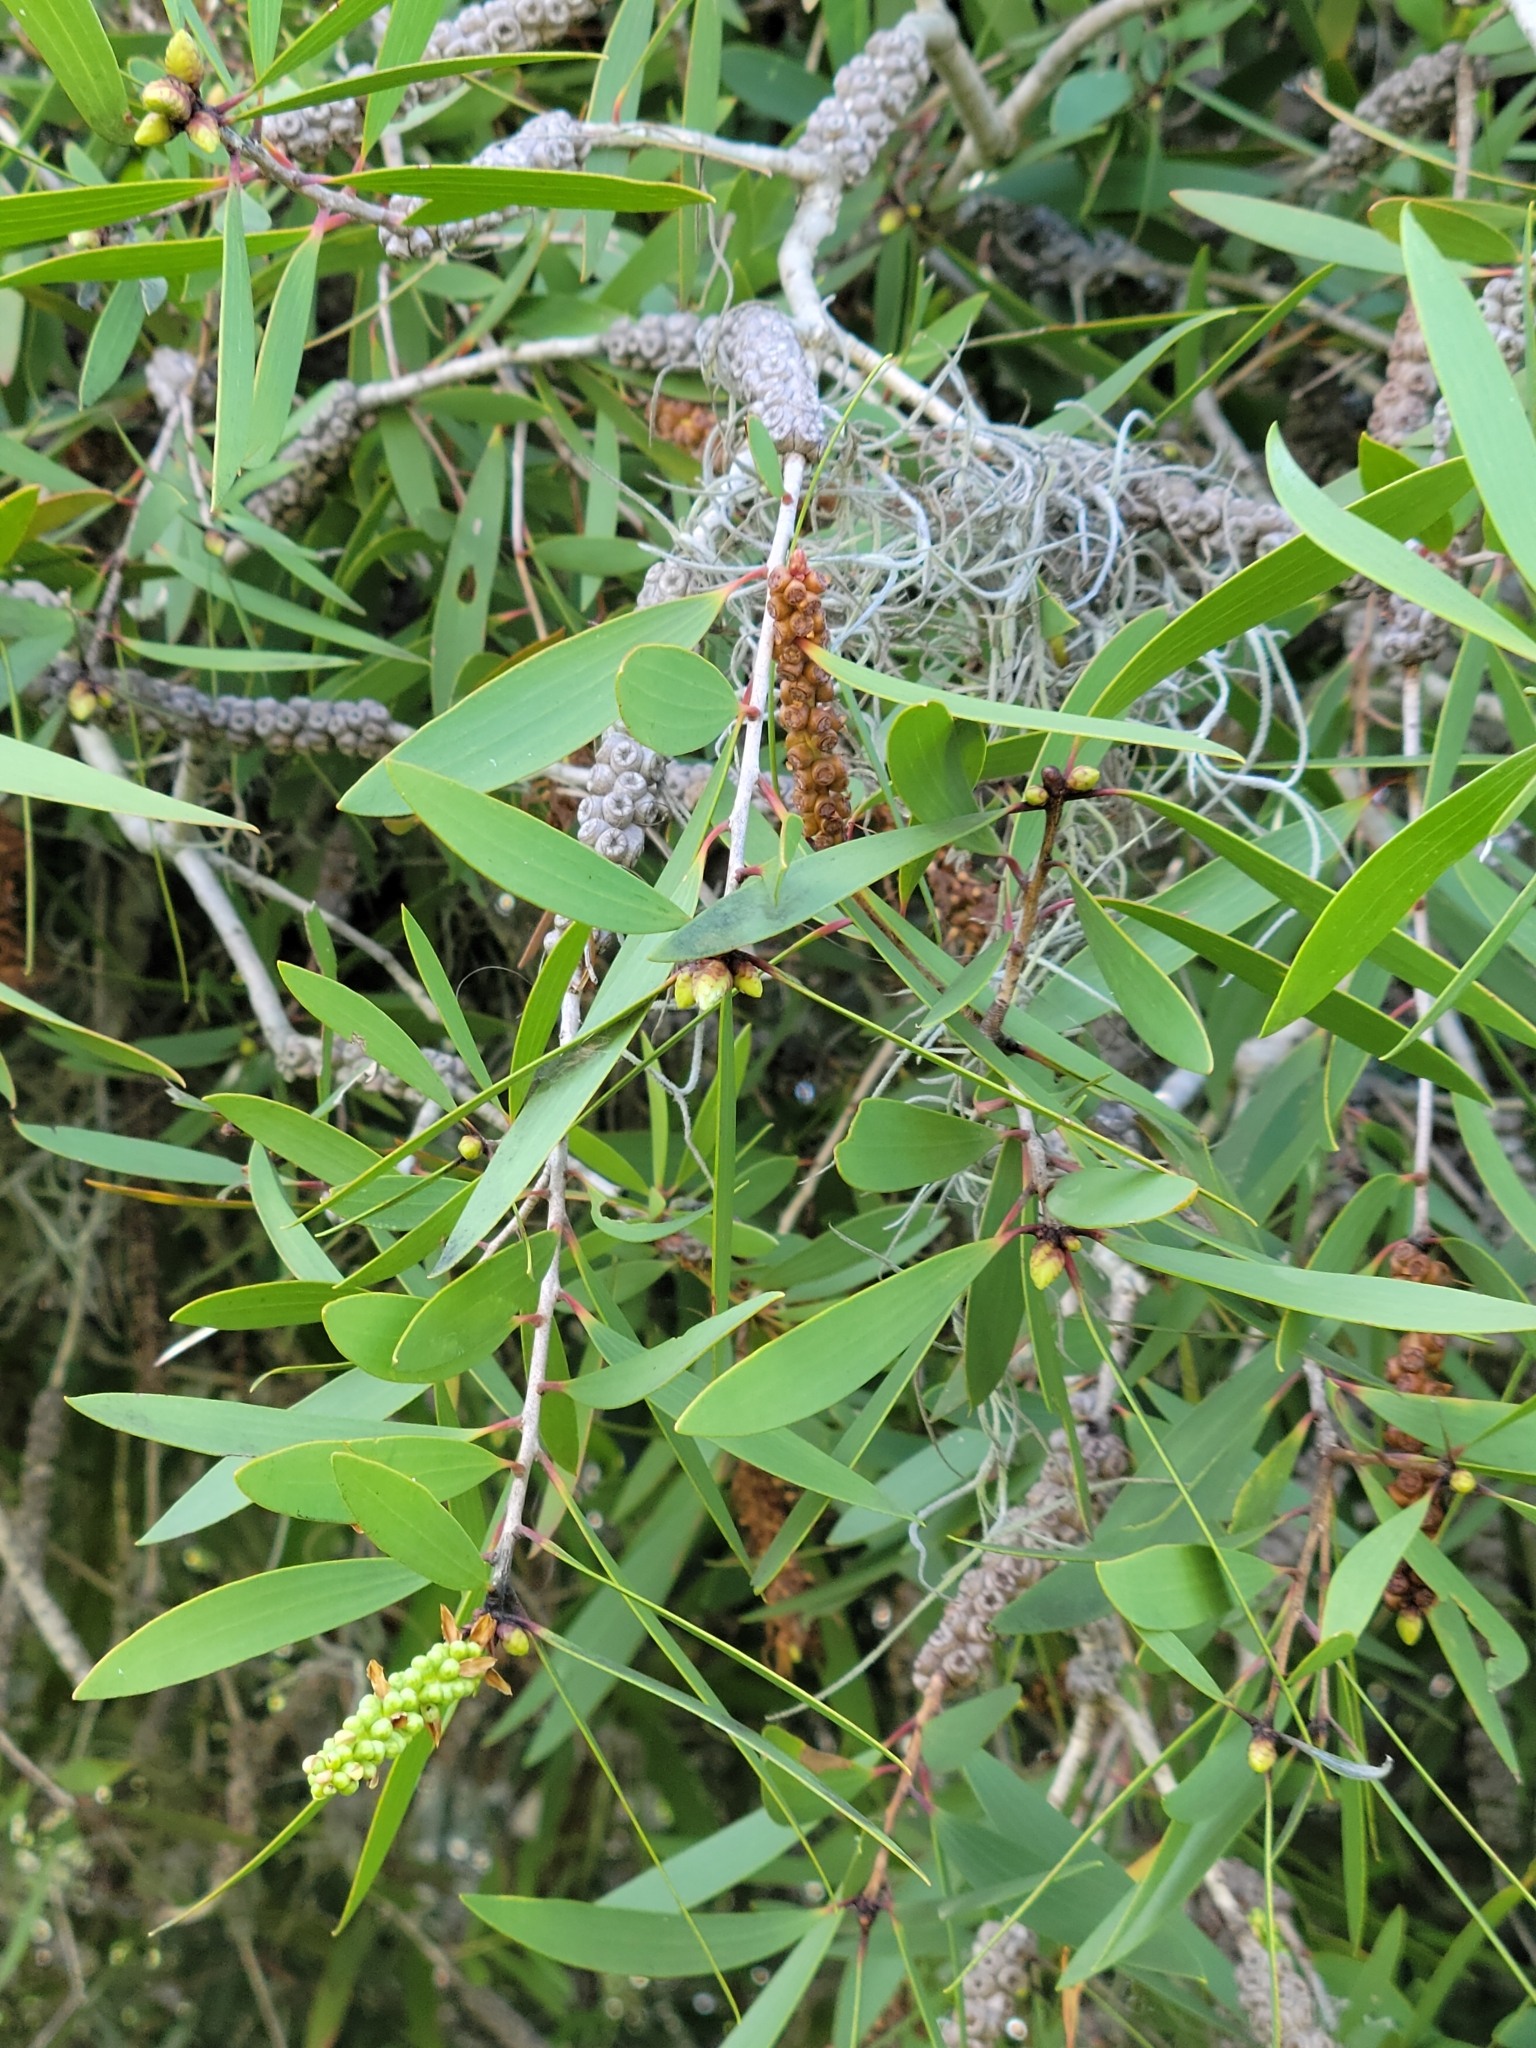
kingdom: Plantae
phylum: Tracheophyta
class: Magnoliopsida
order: Myrtales
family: Myrtaceae
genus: Melaleuca
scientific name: Melaleuca quinquenervia
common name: Punktree
